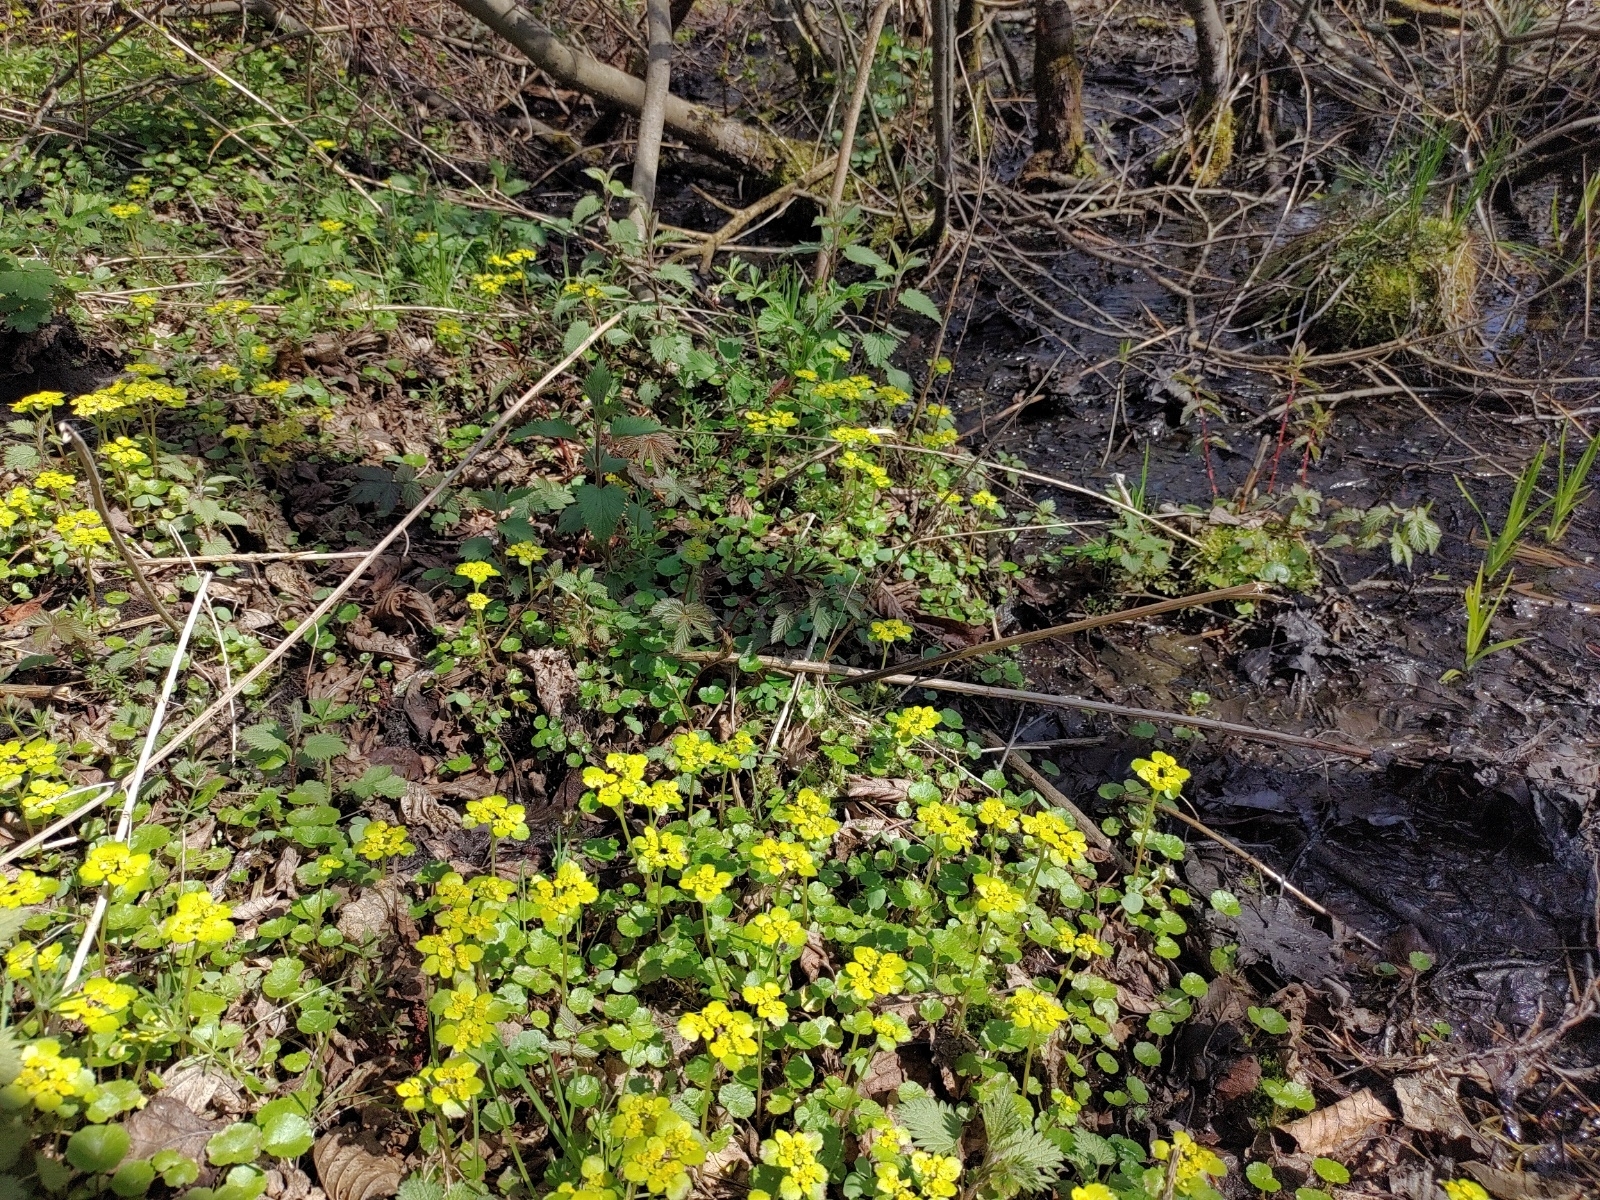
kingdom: Plantae
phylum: Tracheophyta
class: Magnoliopsida
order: Saxifragales
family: Saxifragaceae
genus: Chrysosplenium
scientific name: Chrysosplenium alternifolium
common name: Alternate-leaved golden-saxifrage
